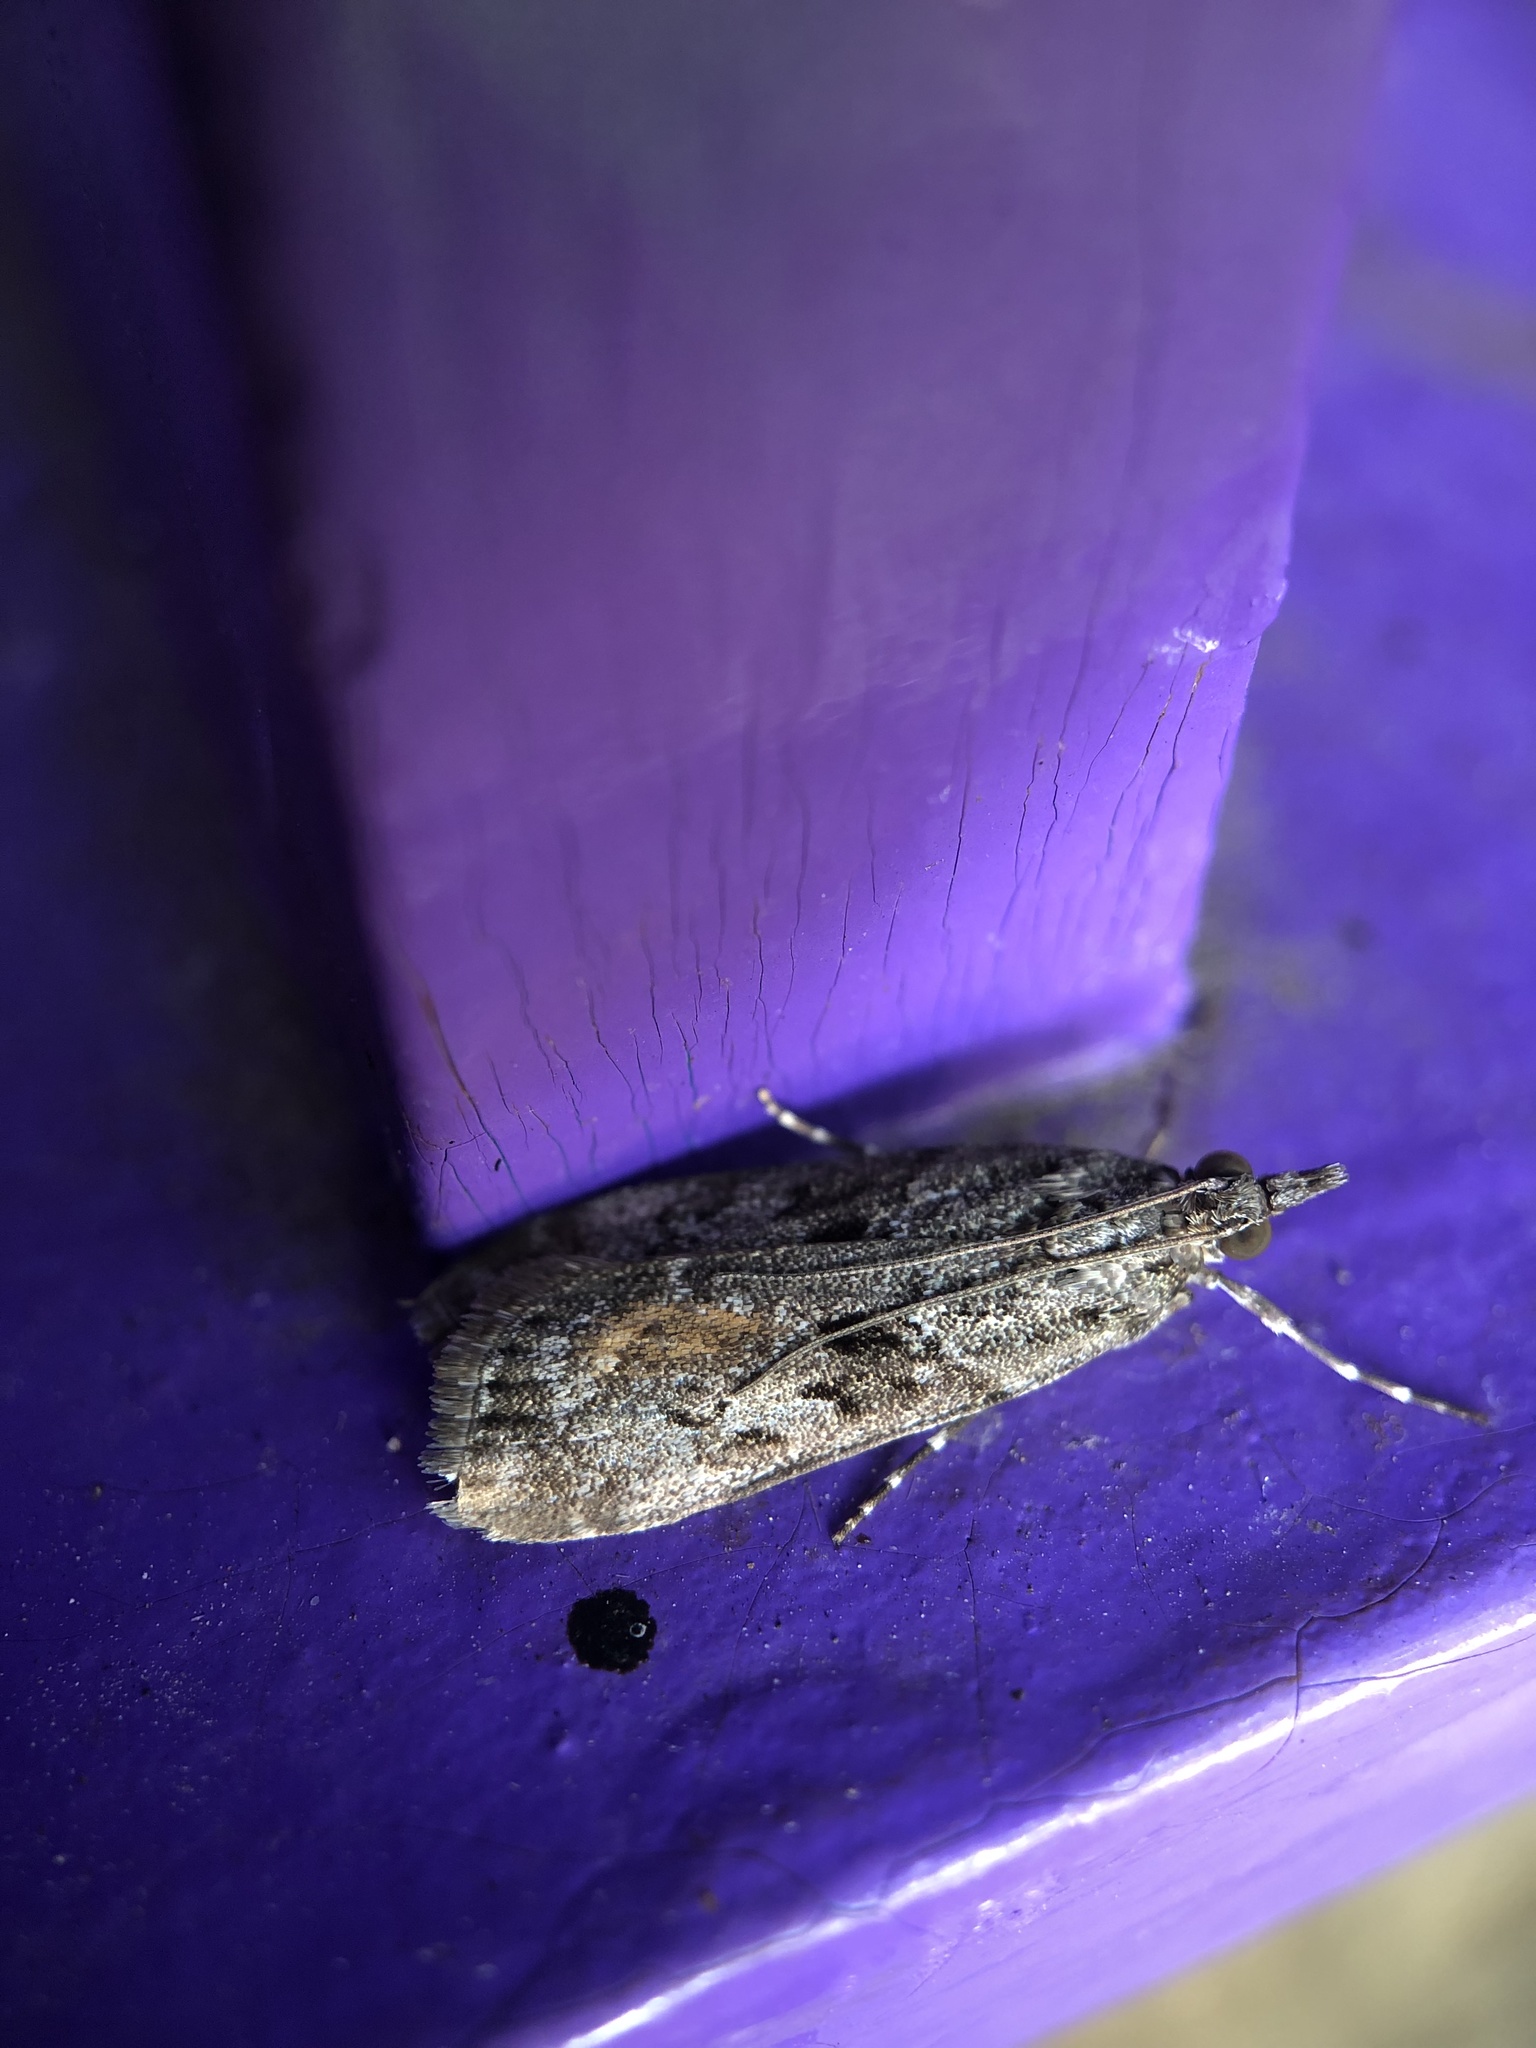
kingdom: Animalia
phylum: Arthropoda
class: Insecta
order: Lepidoptera
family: Crambidae
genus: Eudonia
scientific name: Eudonia submarginalis
